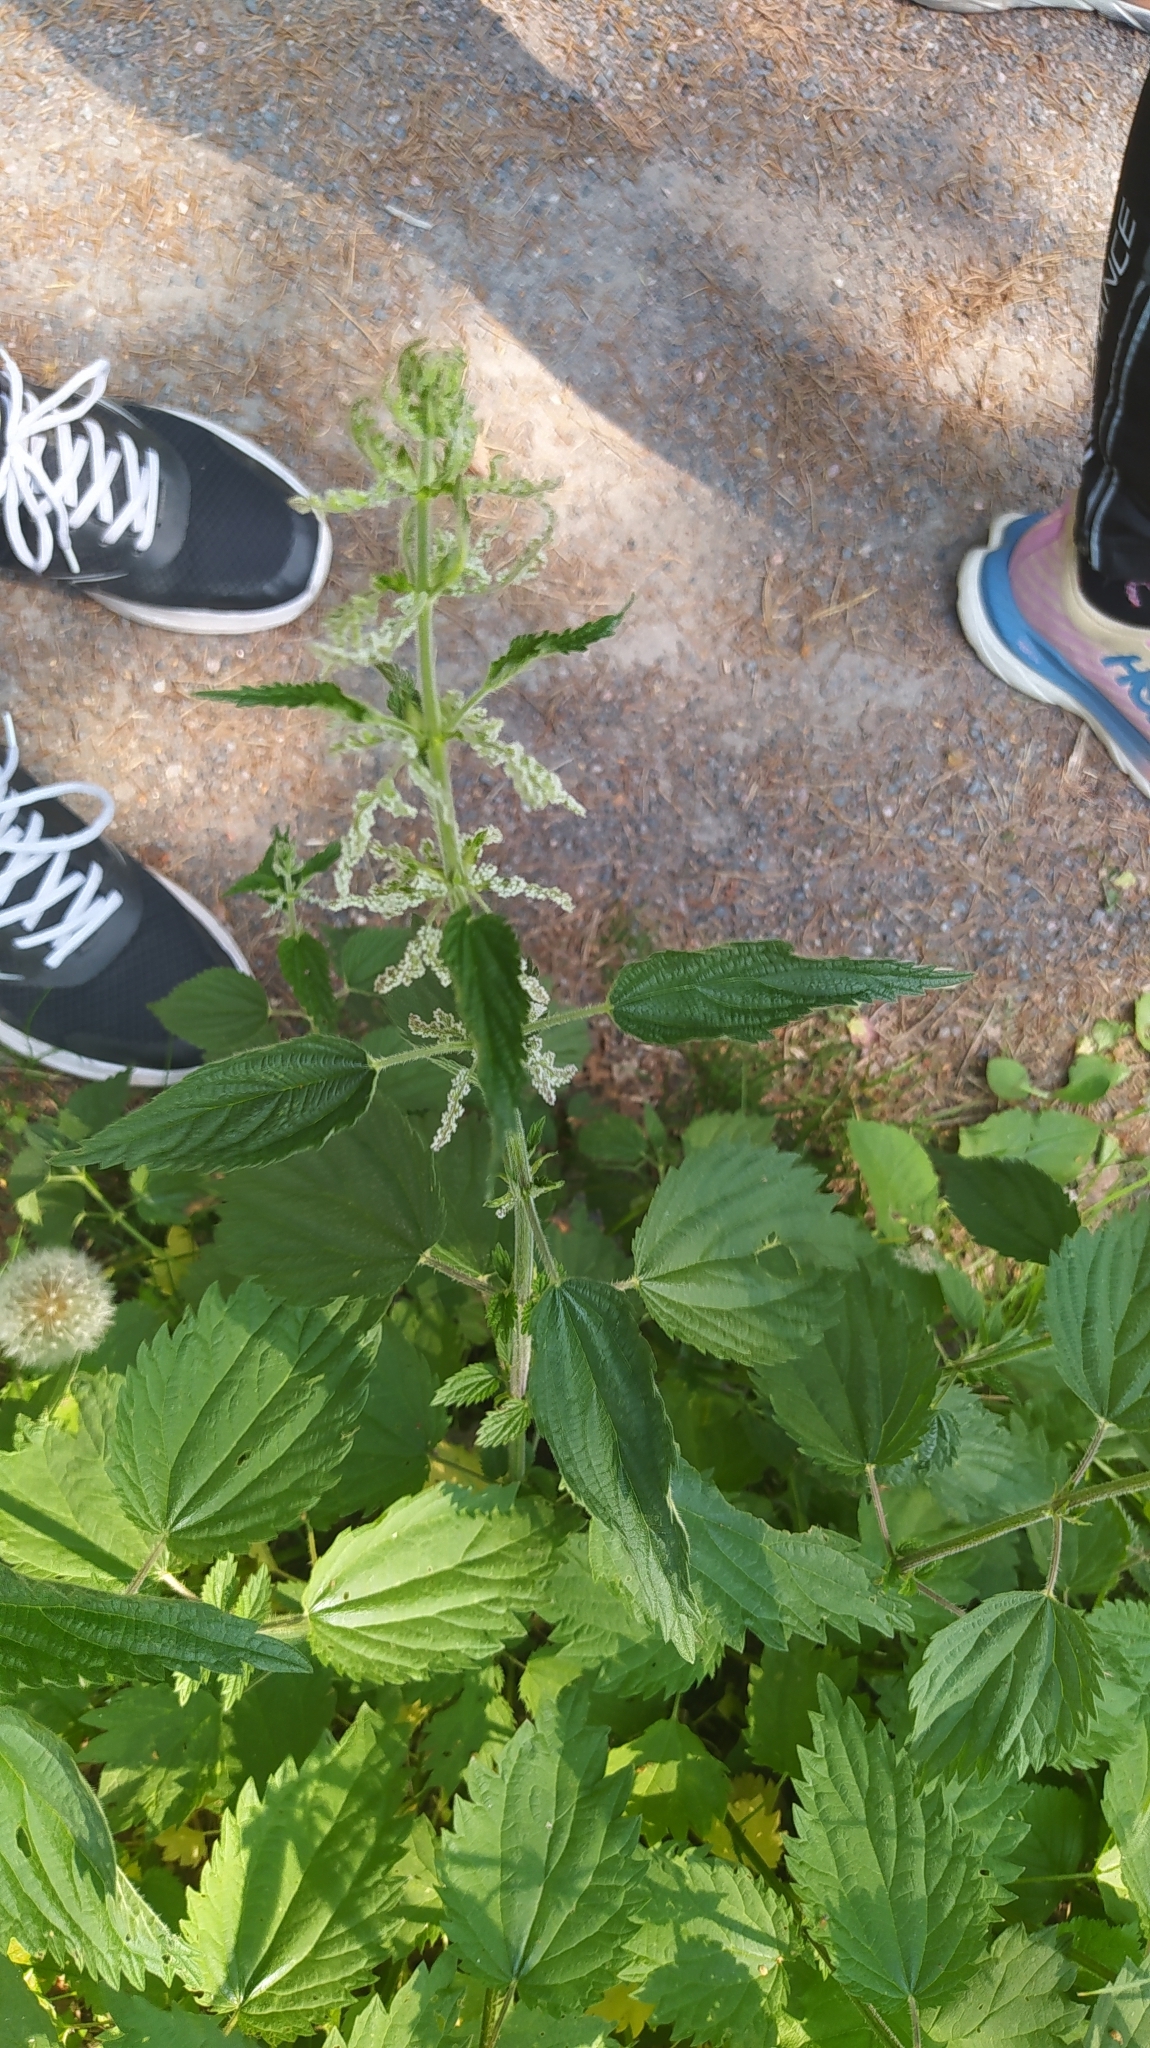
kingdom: Plantae
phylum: Tracheophyta
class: Magnoliopsida
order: Rosales
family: Urticaceae
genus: Urtica
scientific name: Urtica dioica
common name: Common nettle
